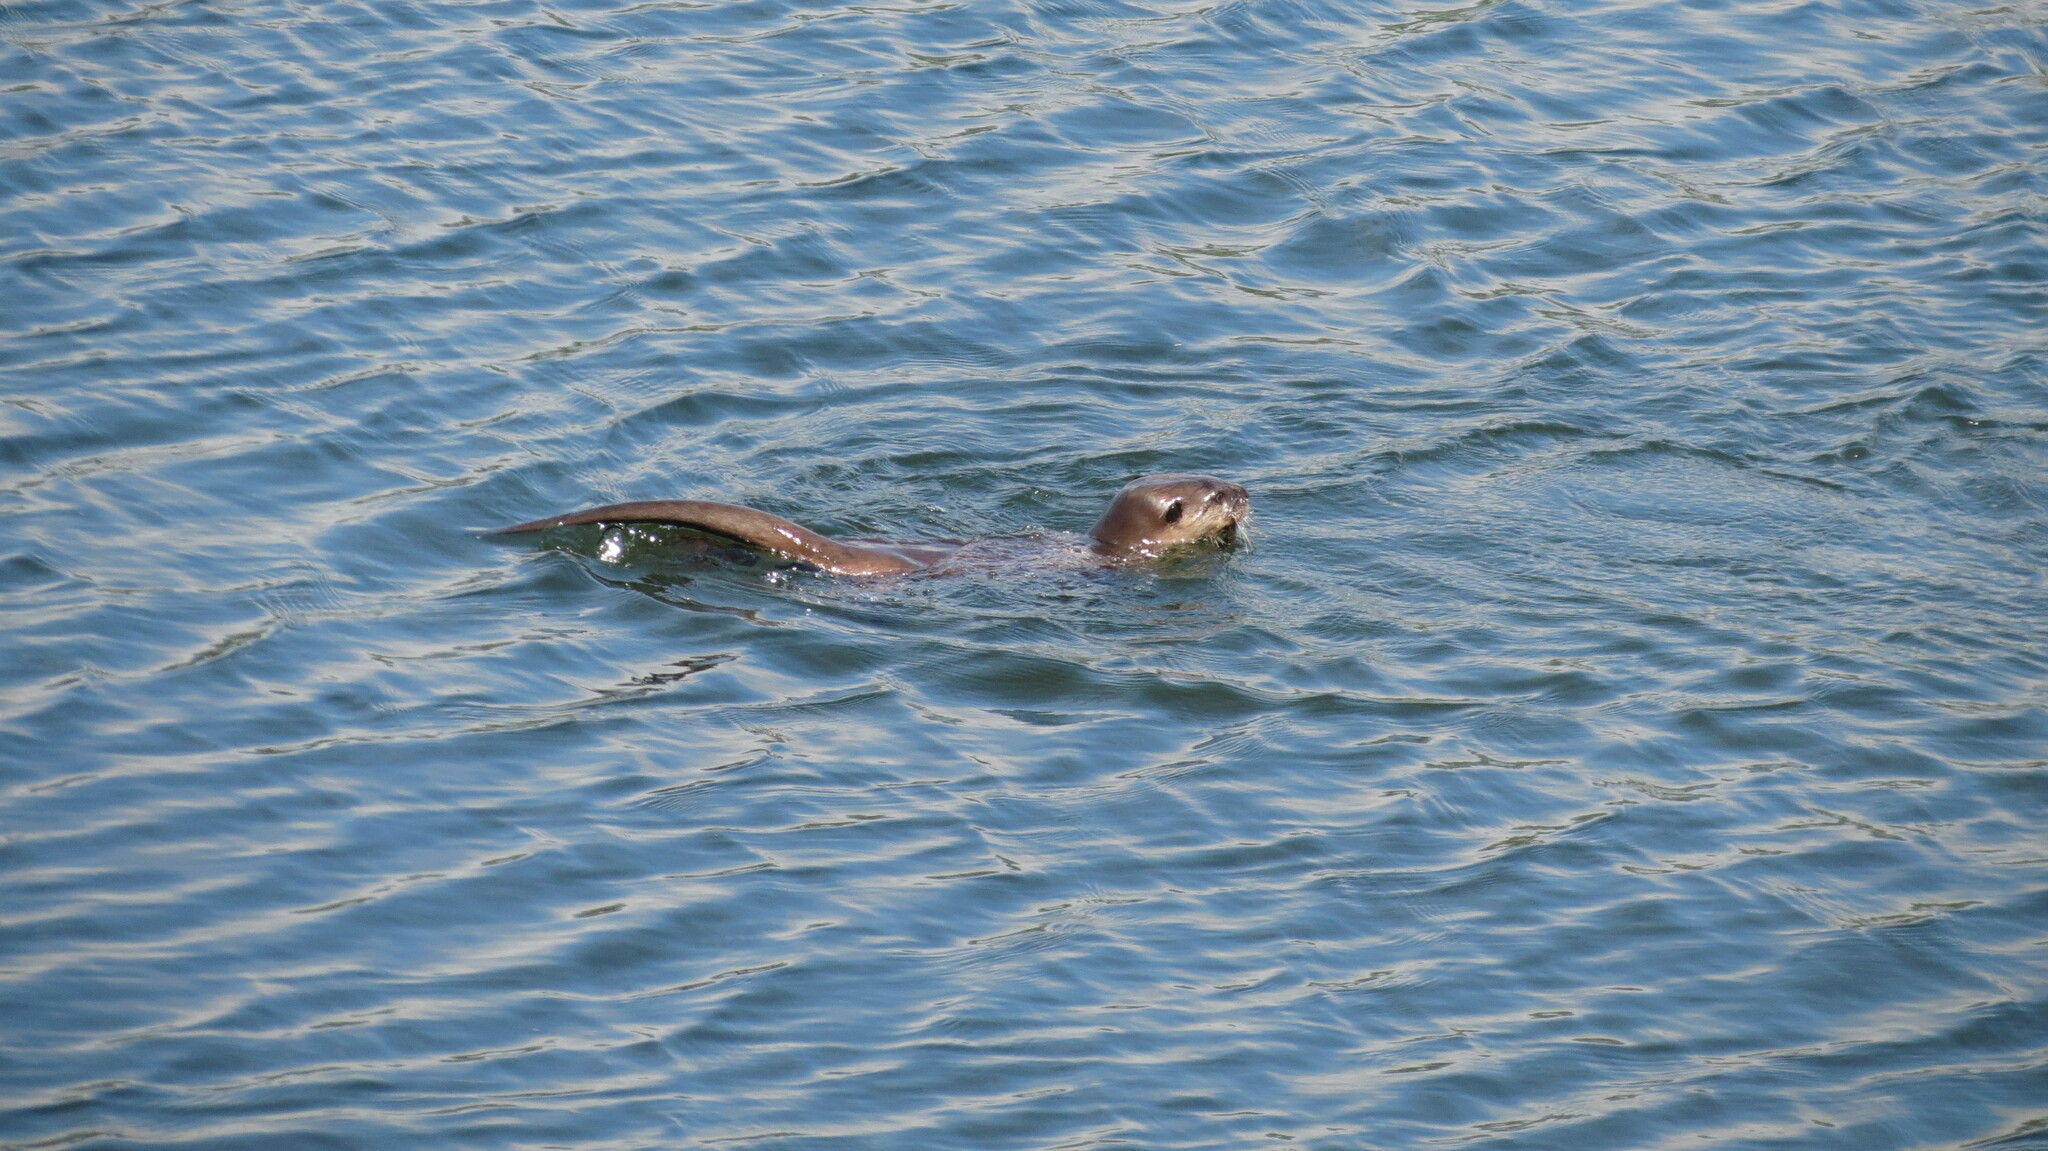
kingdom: Animalia
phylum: Chordata
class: Mammalia
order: Carnivora
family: Mustelidae
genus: Lontra
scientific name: Lontra canadensis
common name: North american river otter
